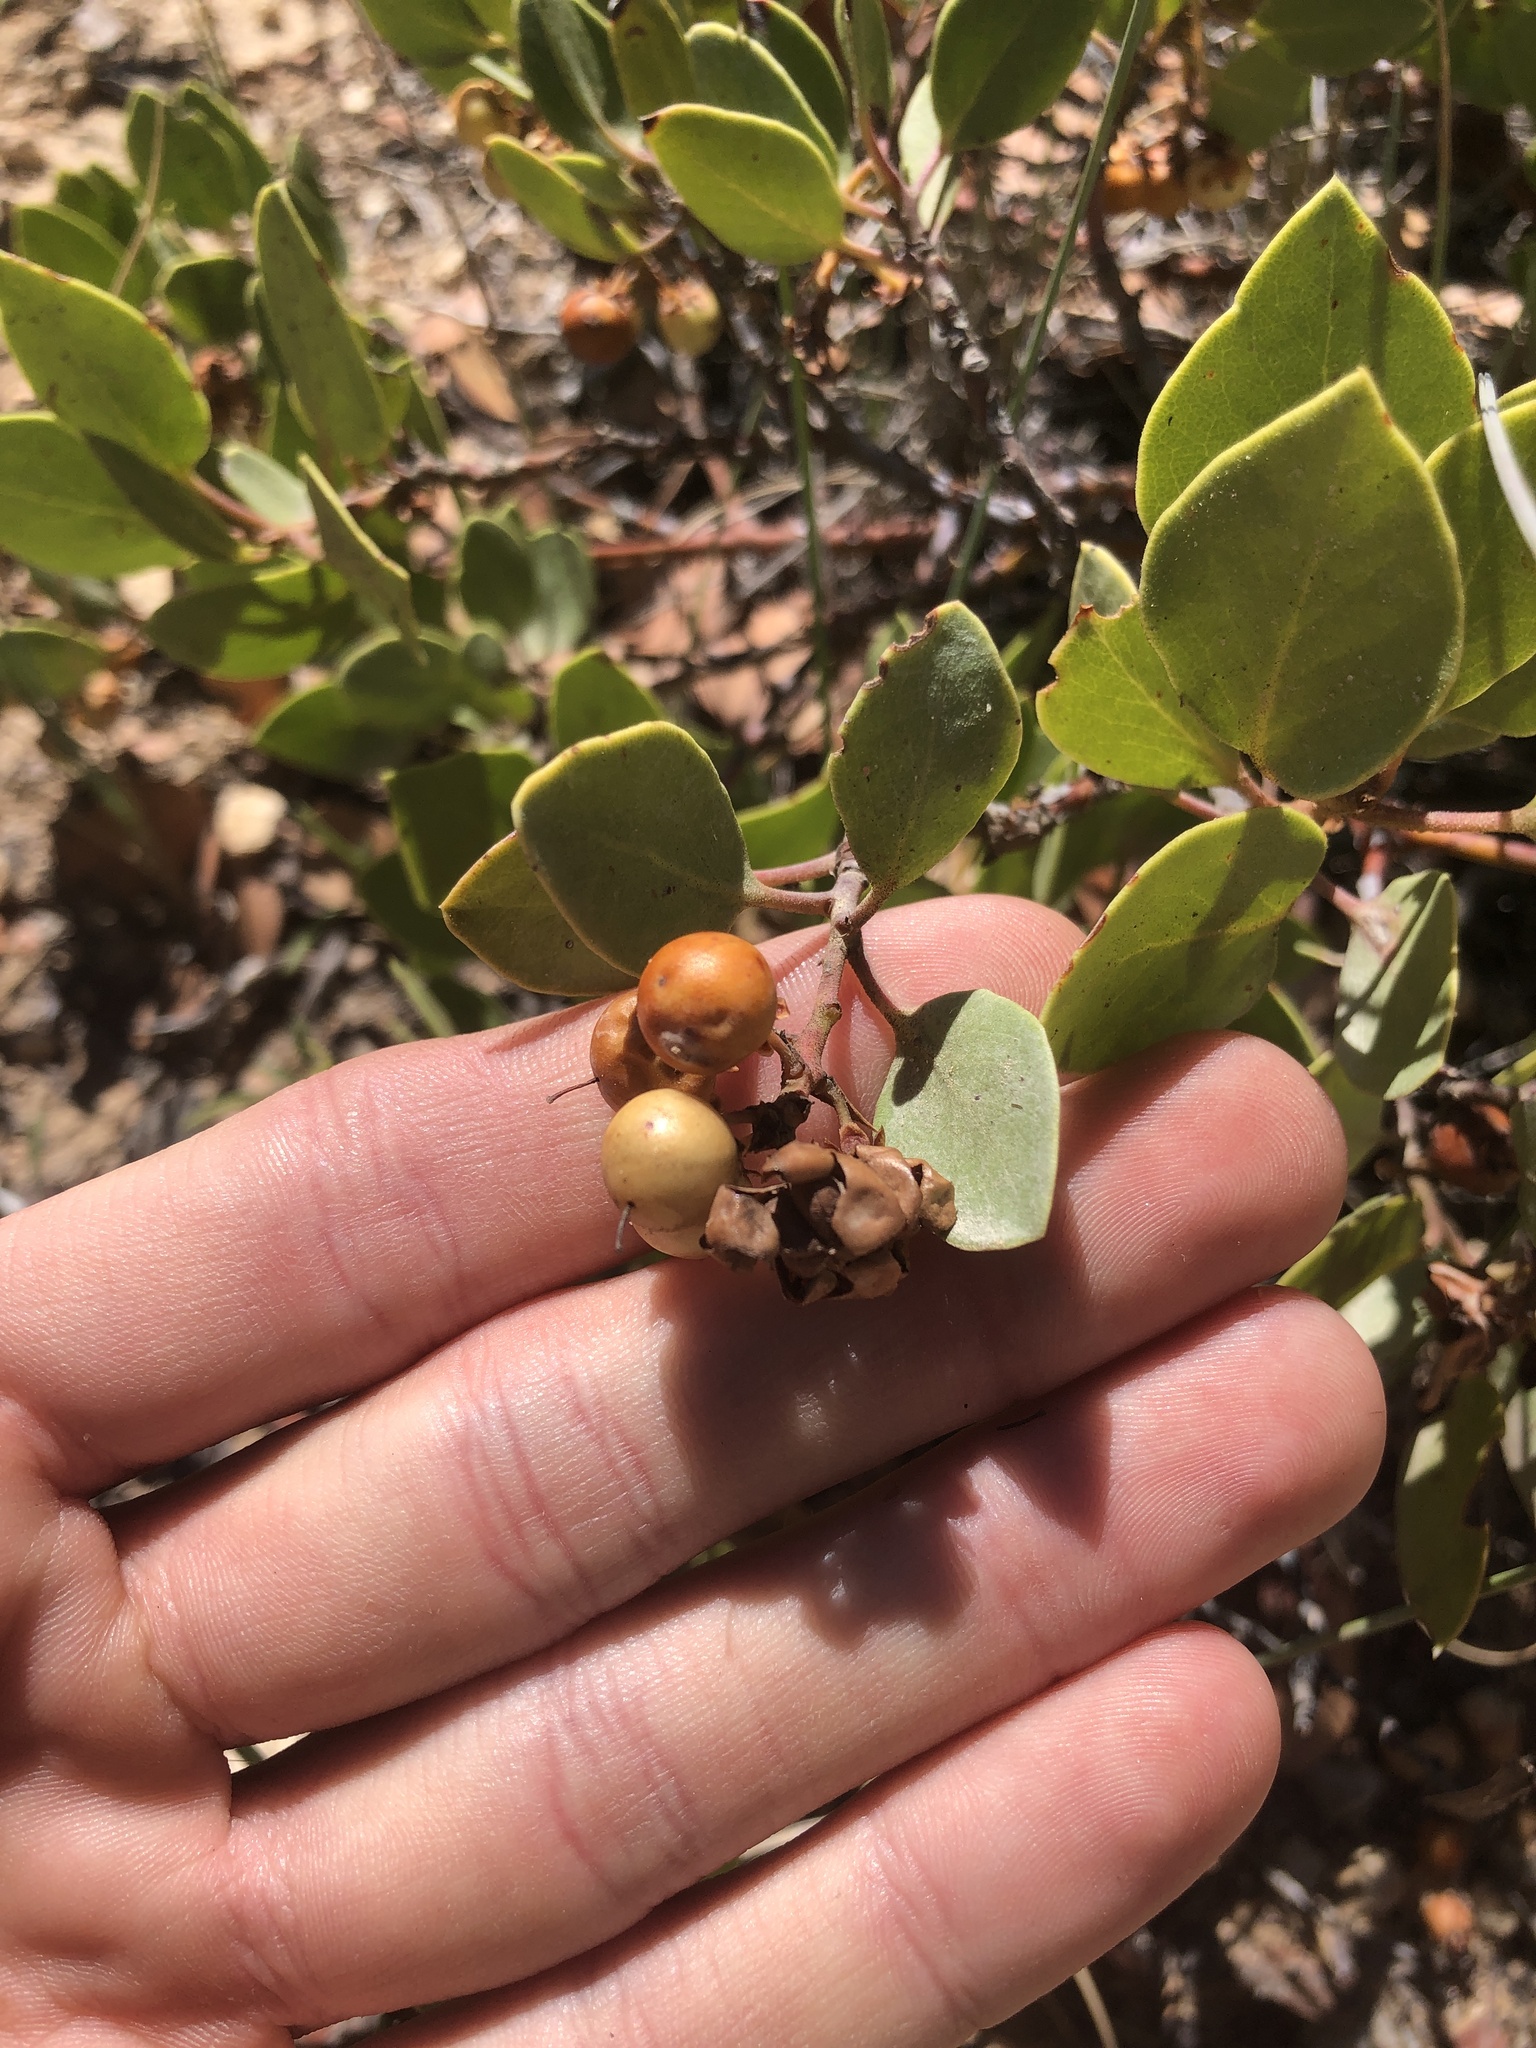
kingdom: Plantae
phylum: Tracheophyta
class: Magnoliopsida
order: Ericales
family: Ericaceae
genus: Arctostaphylos
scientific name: Arctostaphylos patula
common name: Green-leaf manzanita
